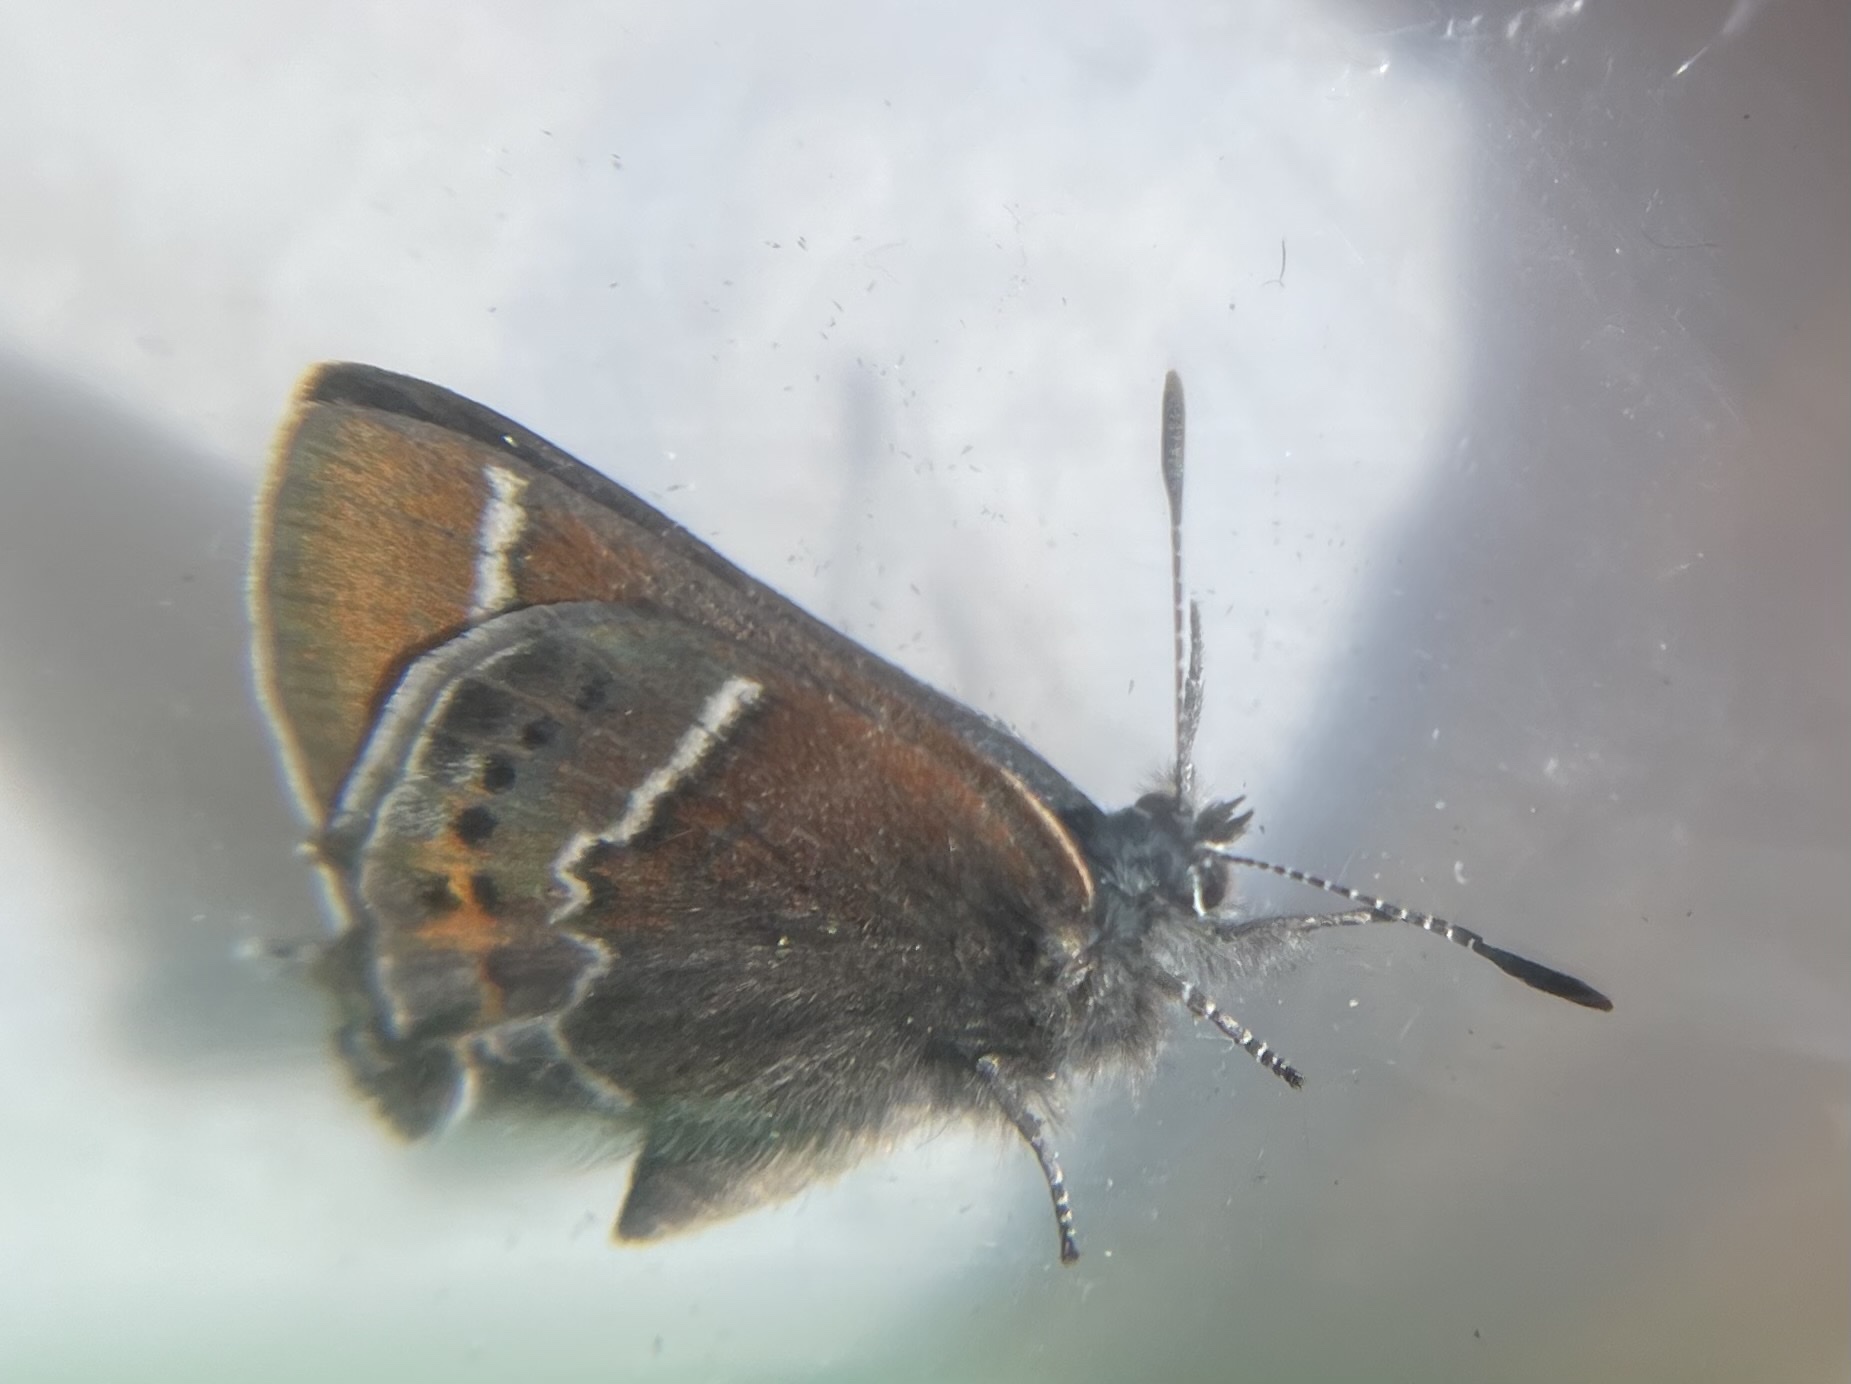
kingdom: Animalia
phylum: Arthropoda
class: Insecta
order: Lepidoptera
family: Lycaenidae
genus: Mitoura
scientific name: Mitoura spinetorum
